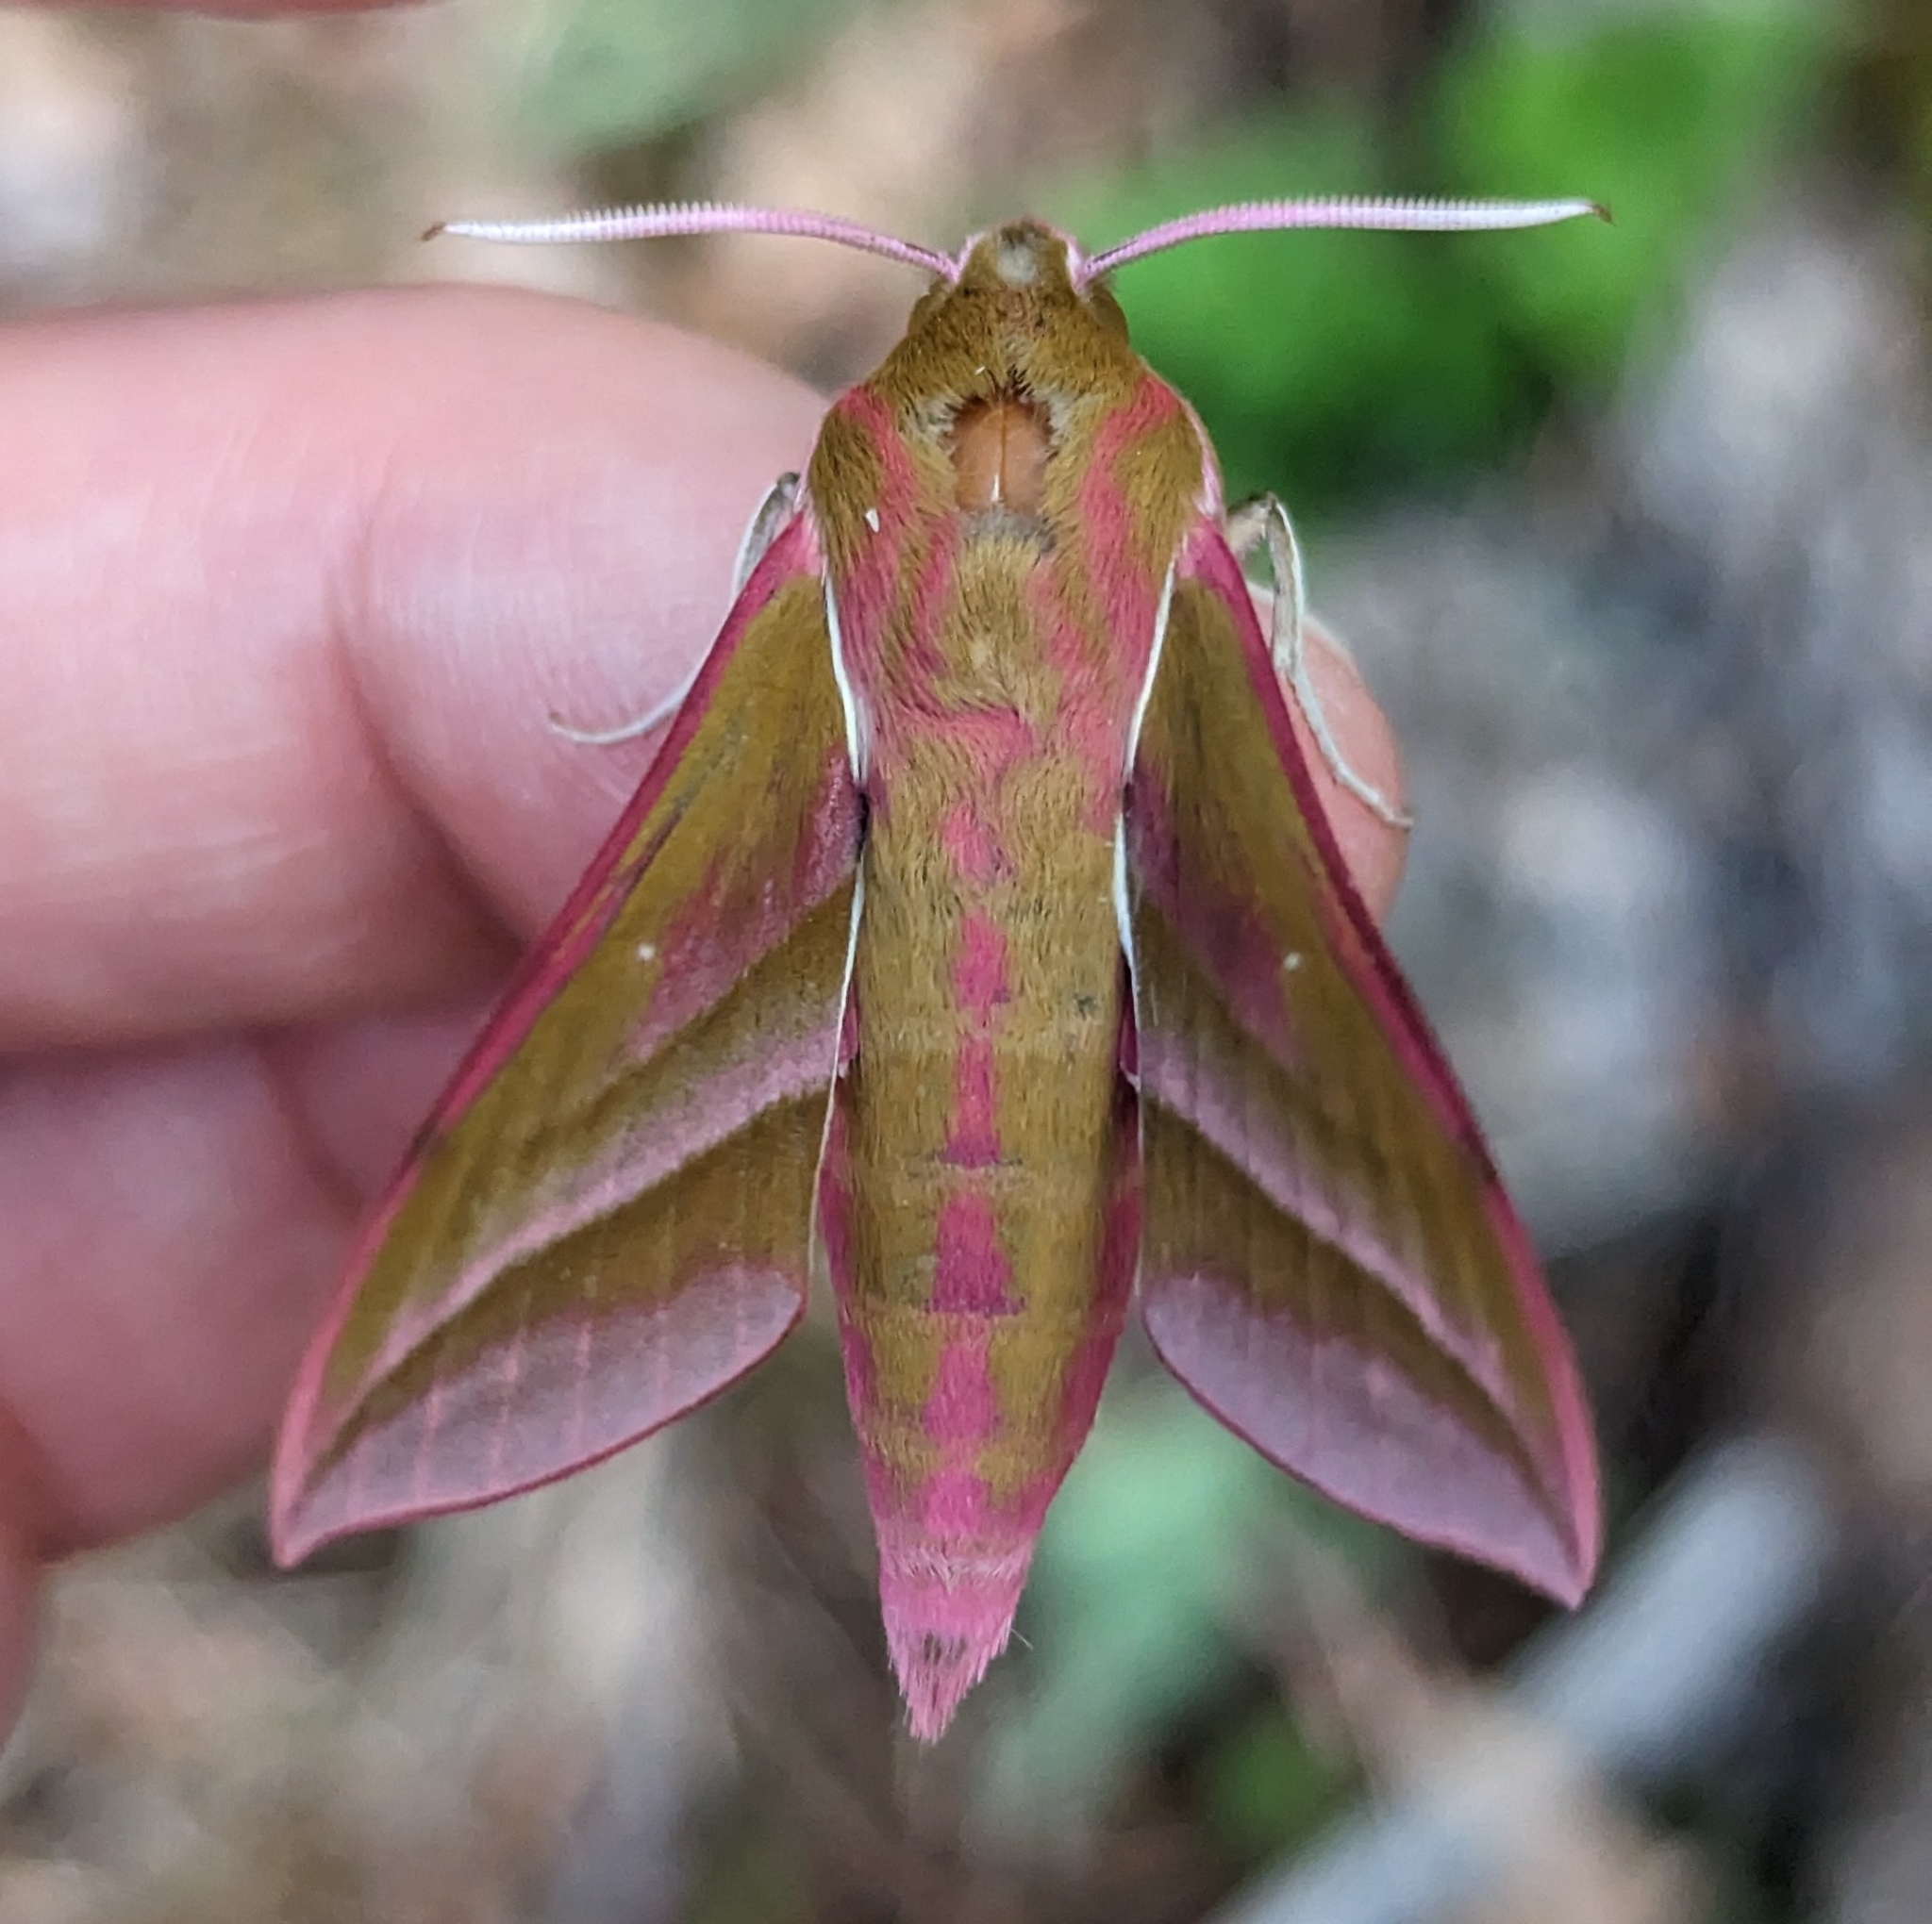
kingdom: Animalia
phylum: Arthropoda
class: Insecta
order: Lepidoptera
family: Sphingidae
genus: Deilephila
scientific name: Deilephila elpenor
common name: Elephant hawk-moth
